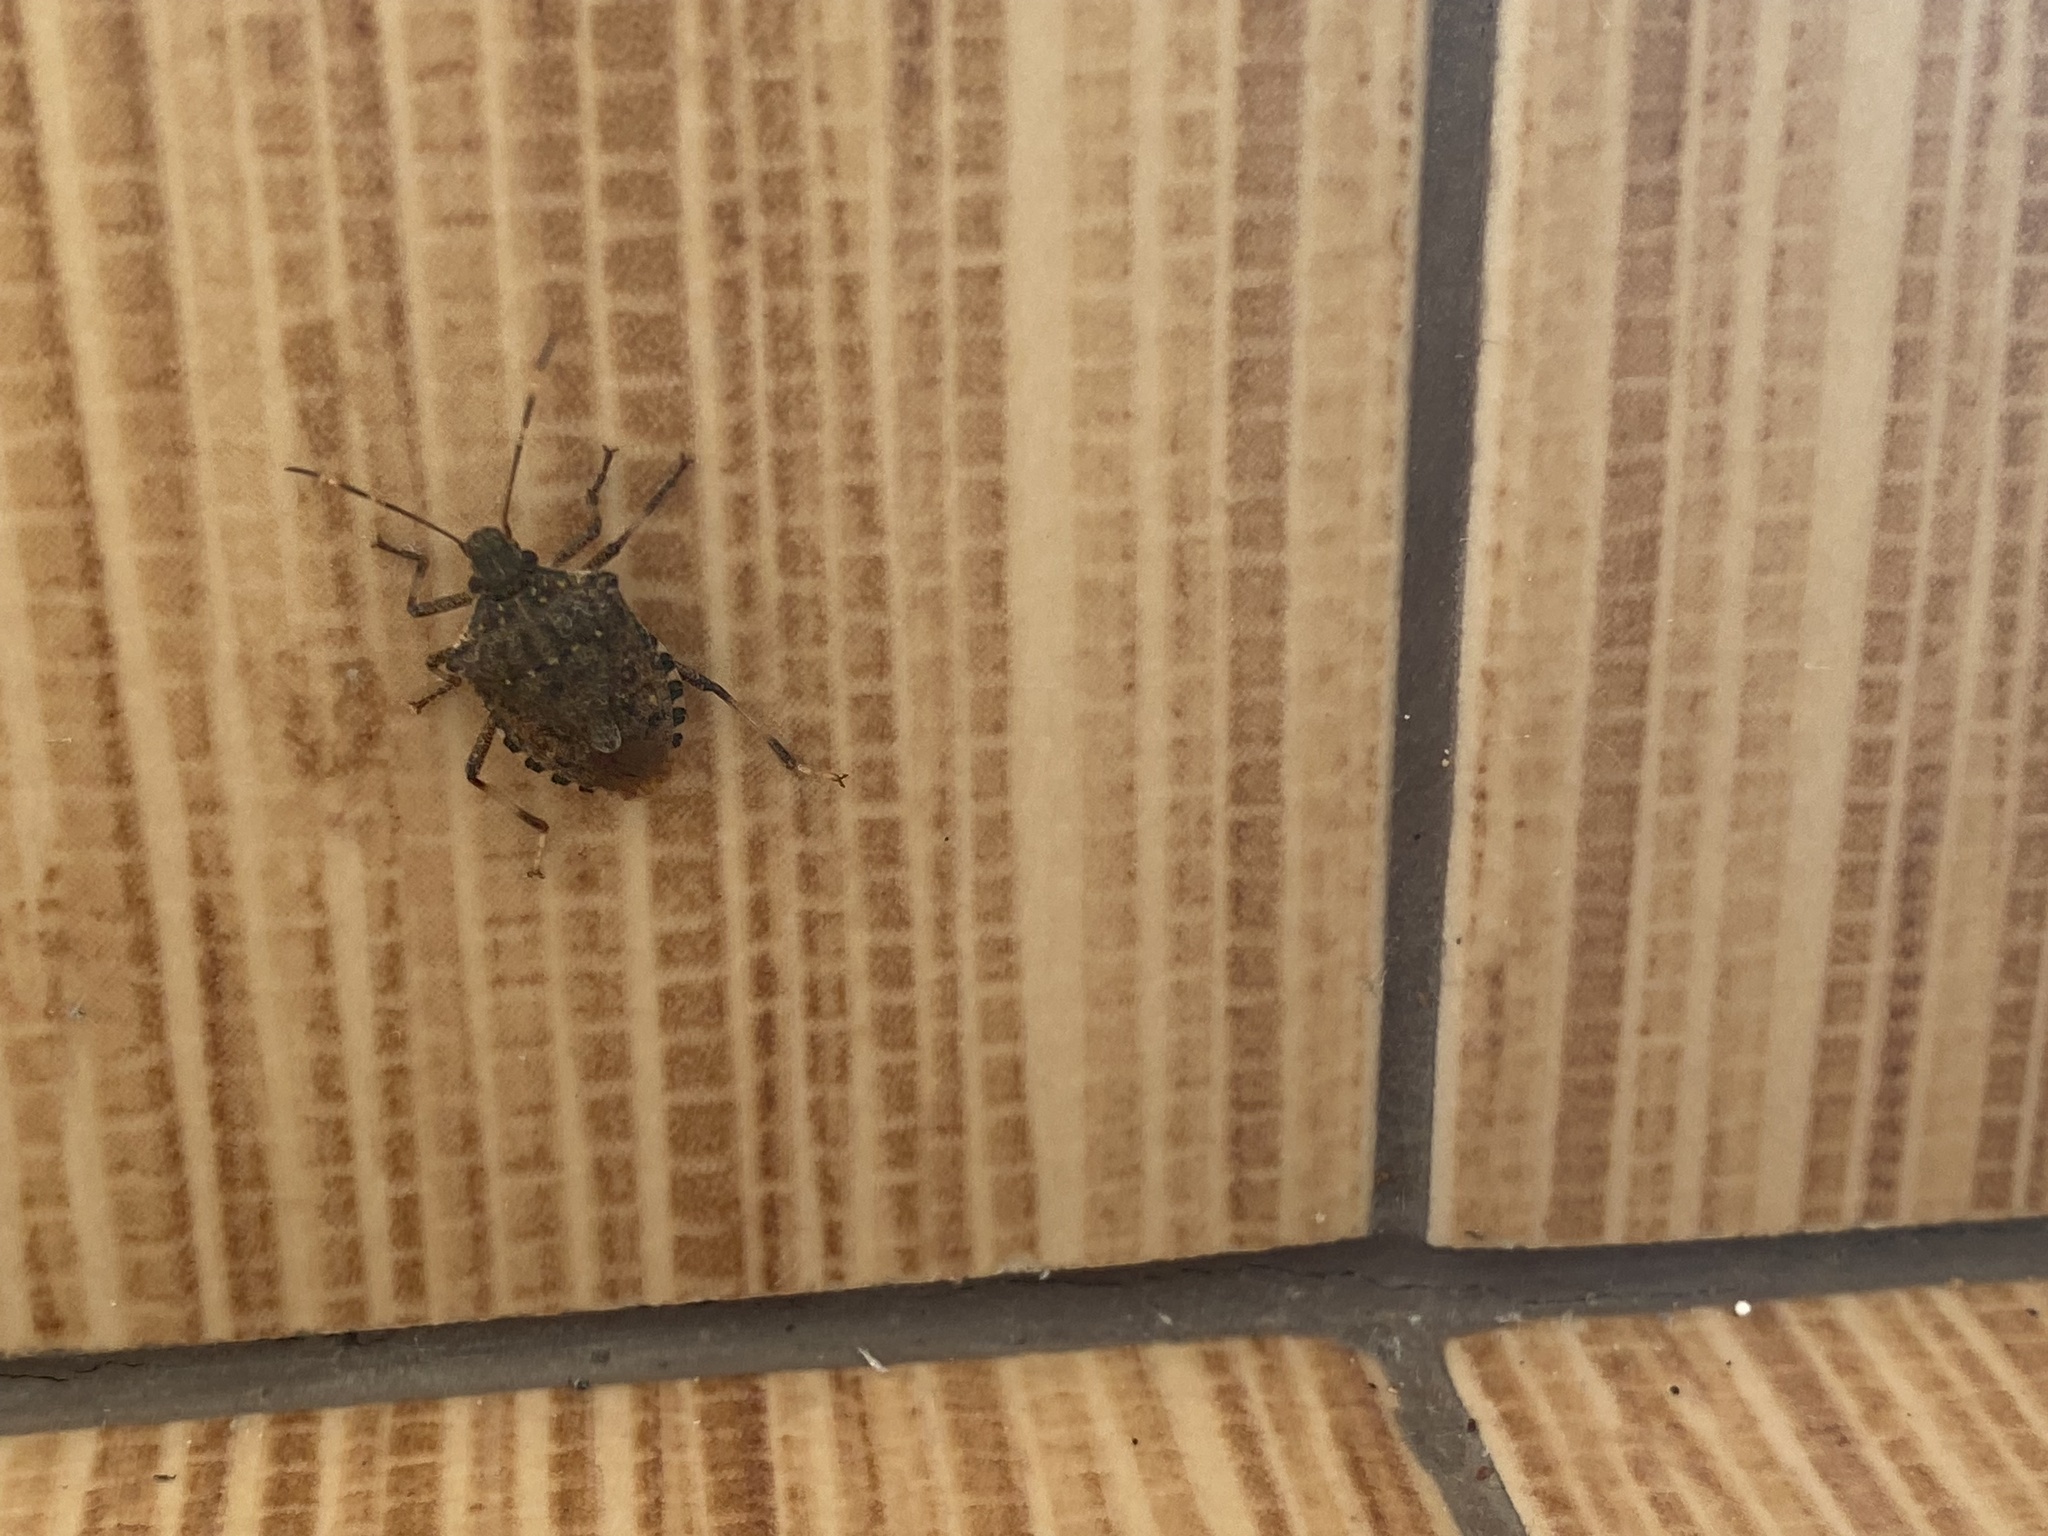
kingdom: Animalia
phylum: Arthropoda
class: Insecta
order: Hemiptera
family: Pentatomidae
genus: Halyomorpha
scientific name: Halyomorpha halys
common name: Brown marmorated stink bug
